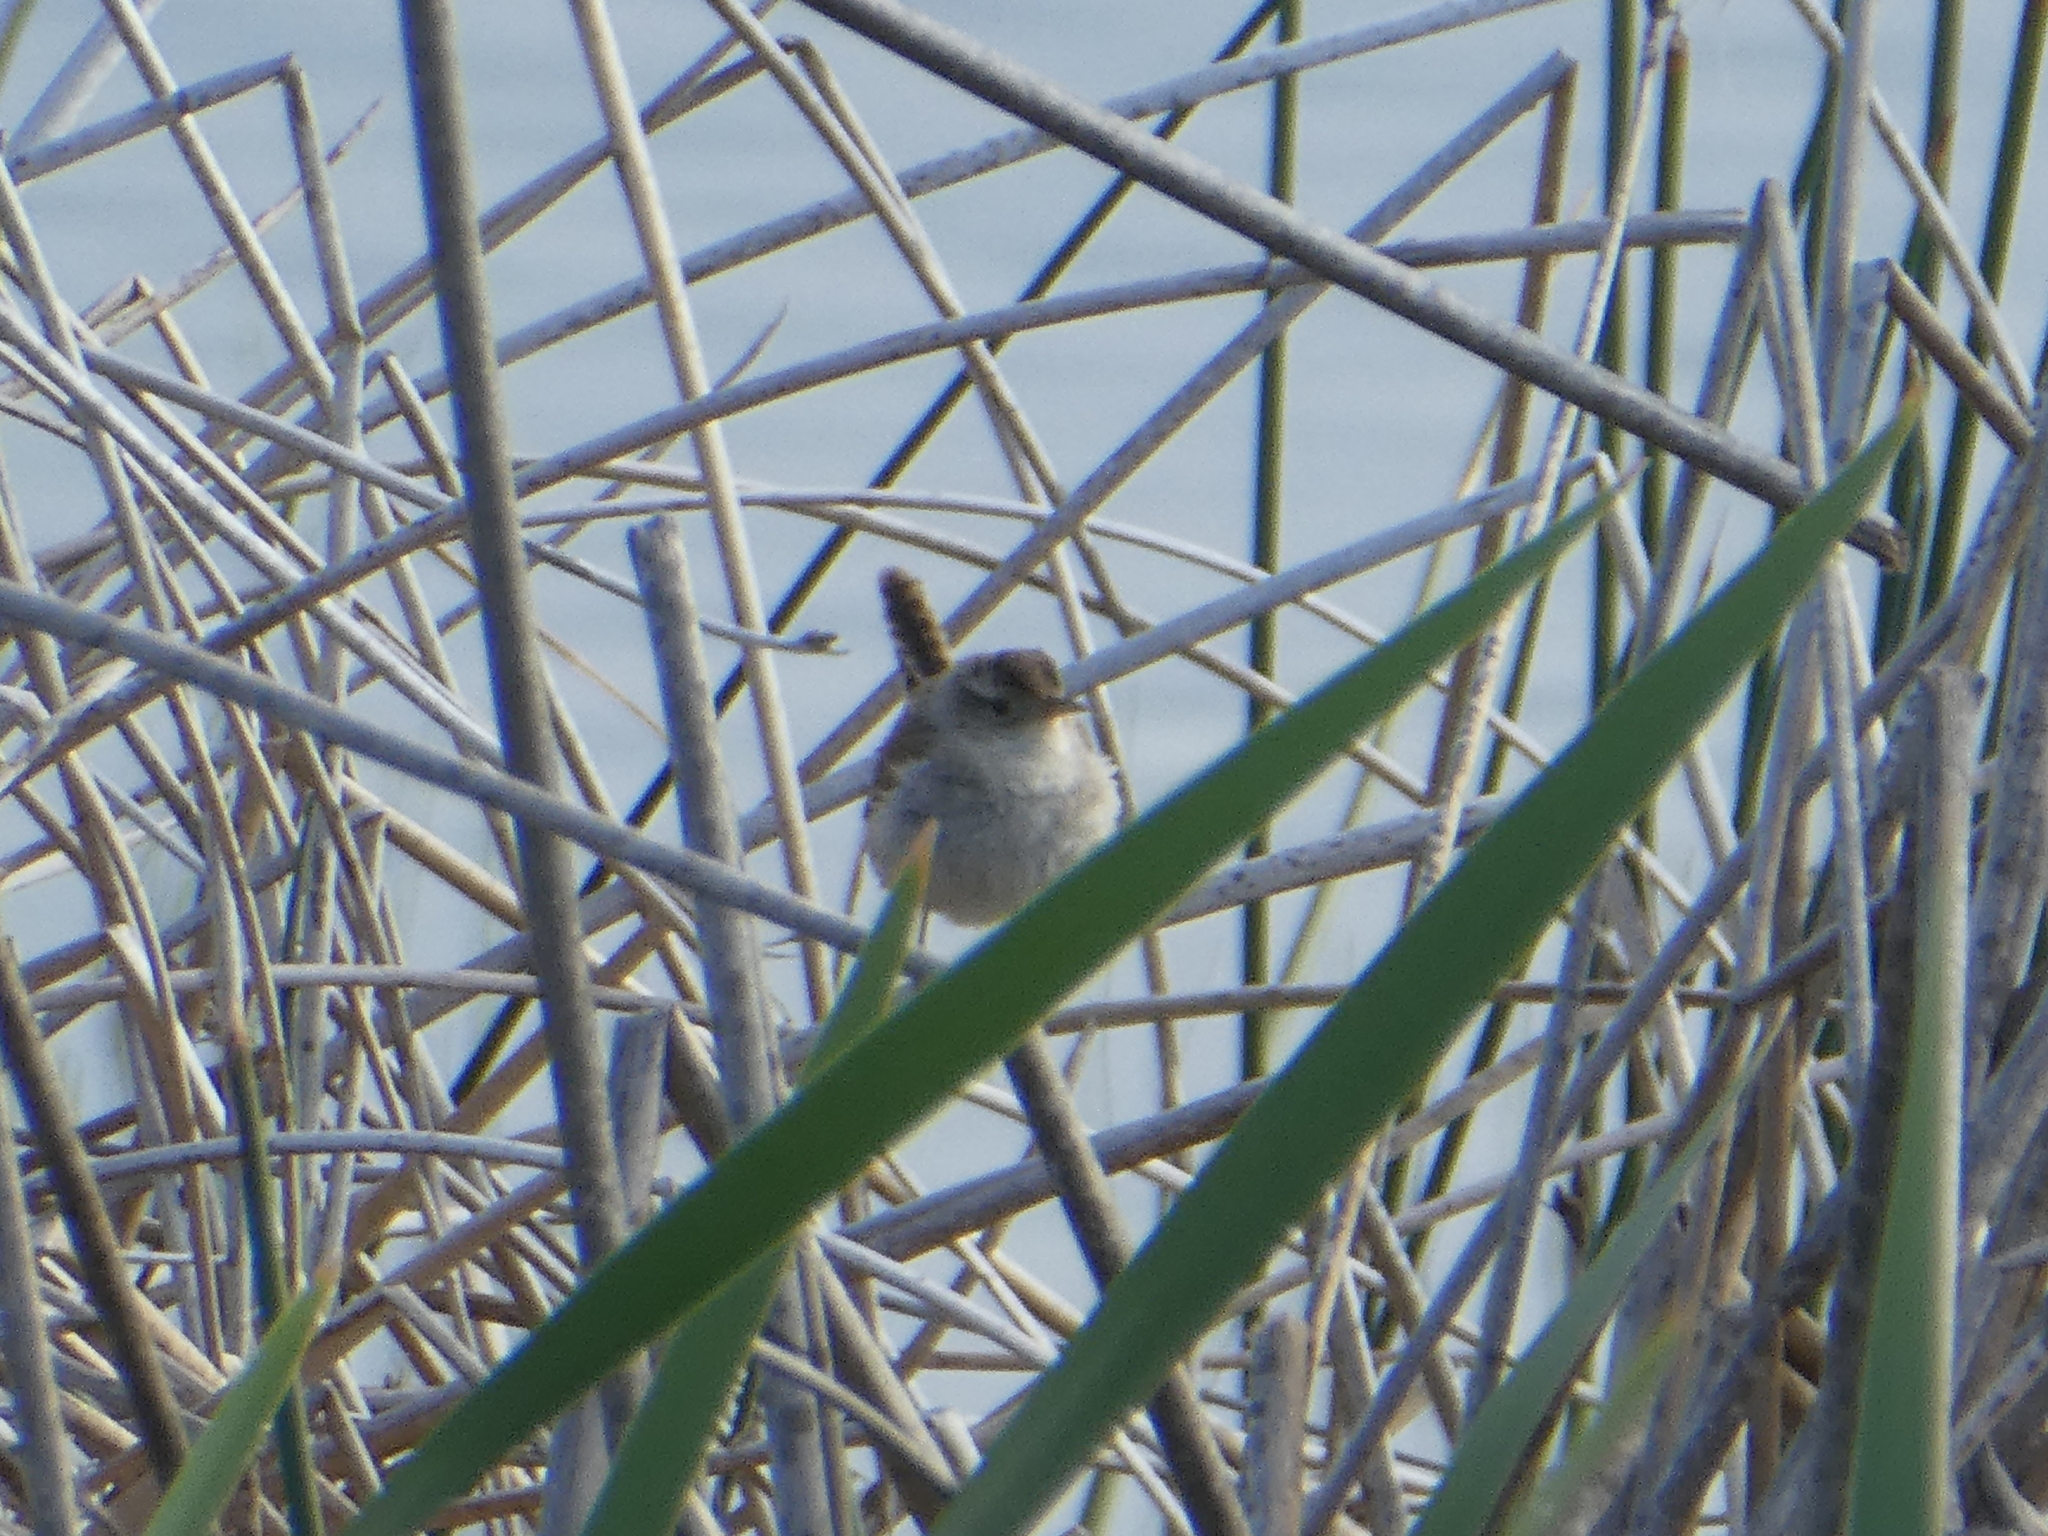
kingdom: Animalia
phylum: Chordata
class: Aves
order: Passeriformes
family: Troglodytidae
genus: Cistothorus
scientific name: Cistothorus palustris
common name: Marsh wren
